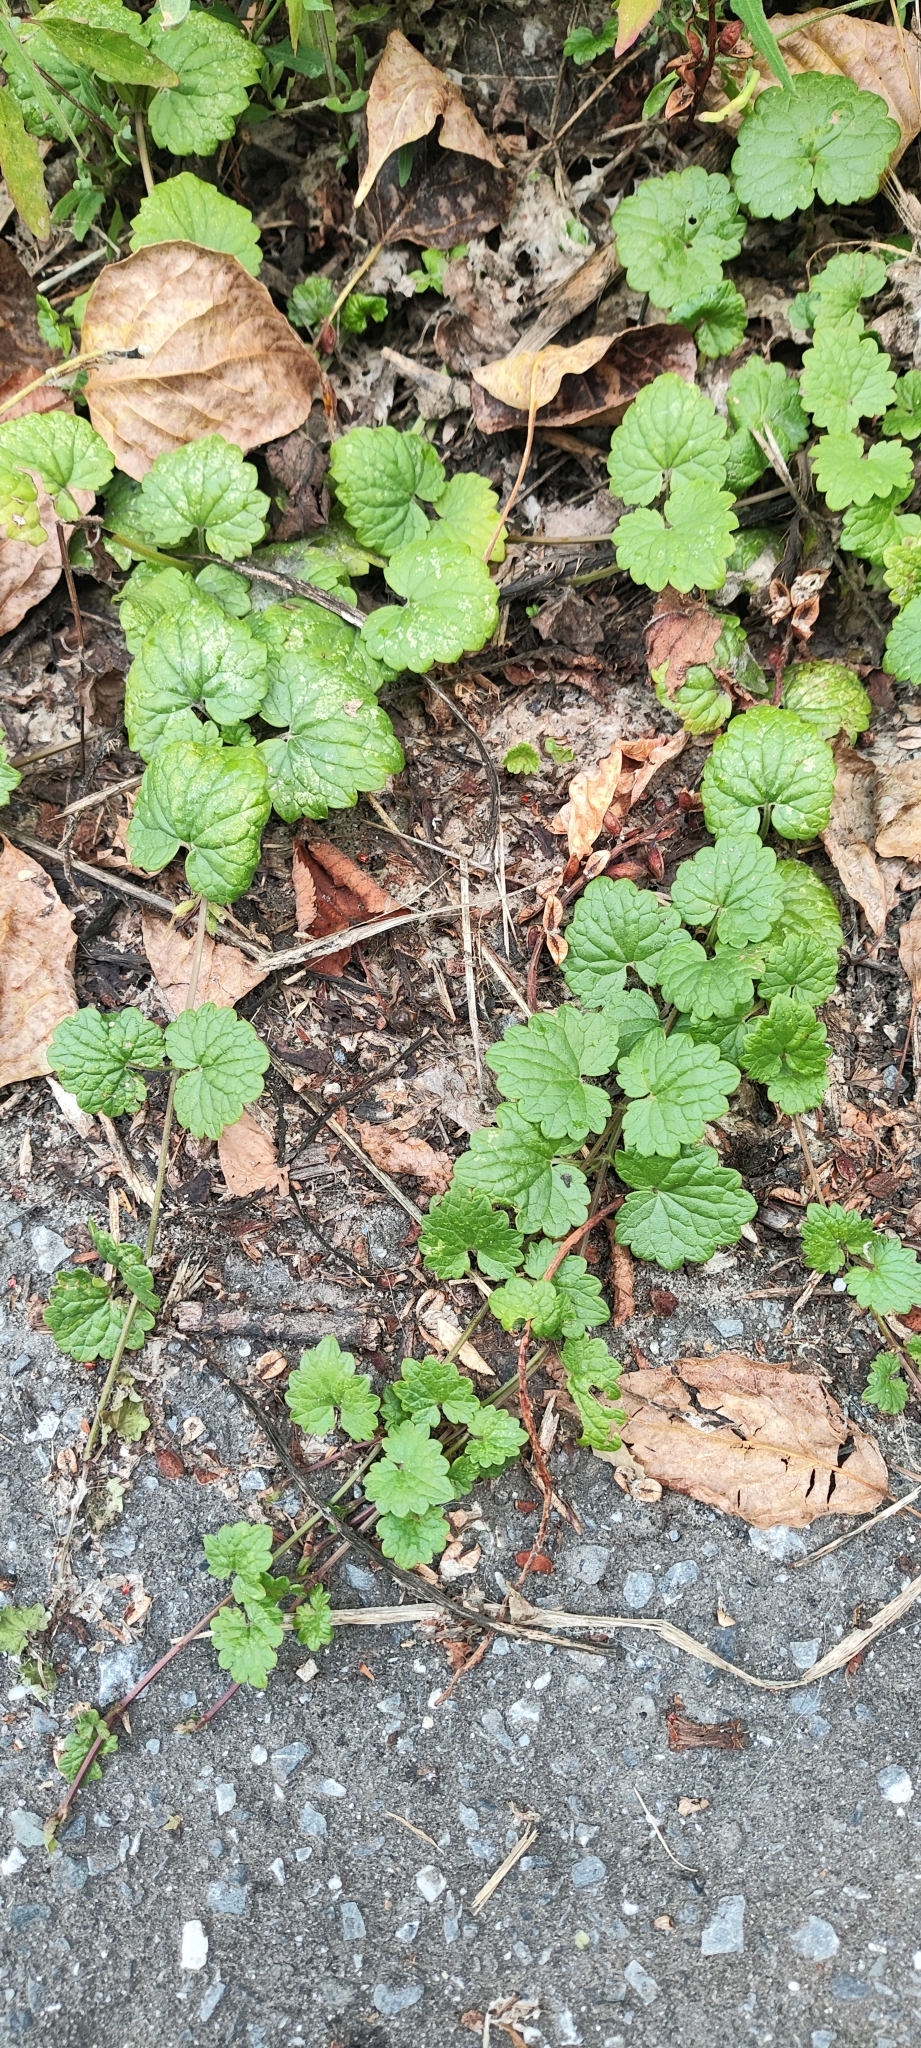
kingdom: Plantae
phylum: Tracheophyta
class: Magnoliopsida
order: Lamiales
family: Lamiaceae
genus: Glechoma
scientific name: Glechoma hederacea
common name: Ground ivy
